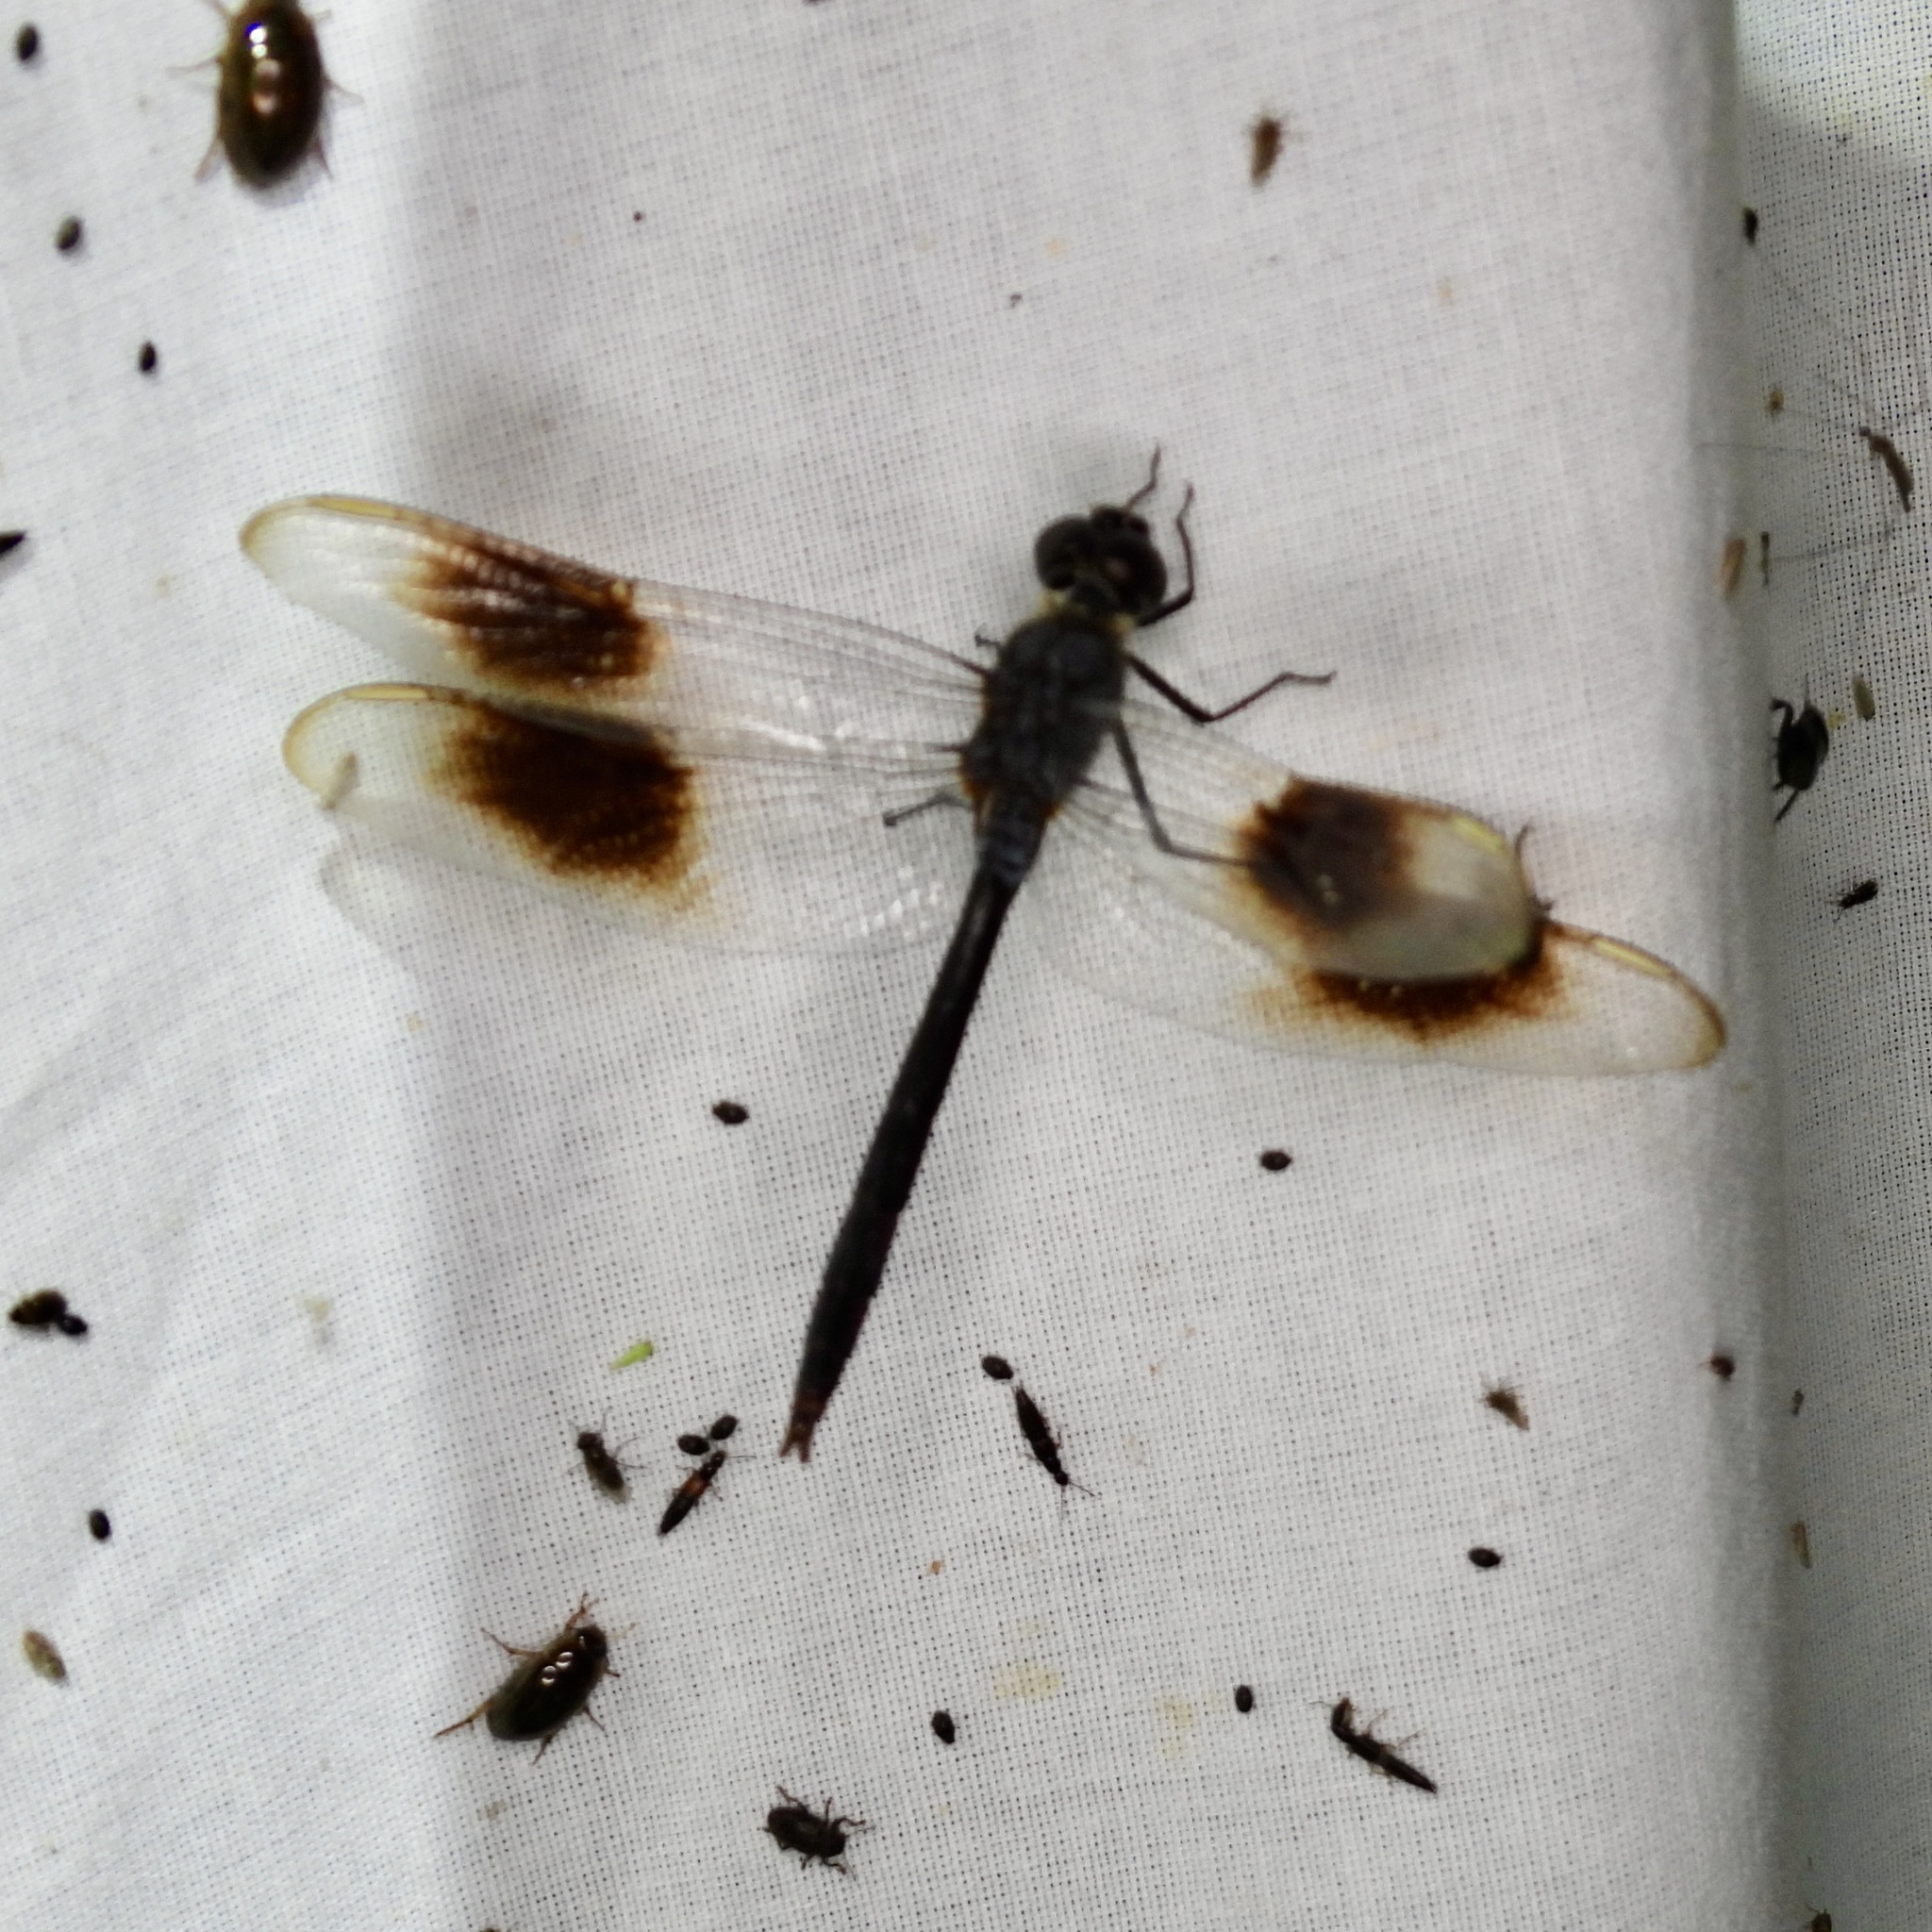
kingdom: Animalia
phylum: Arthropoda
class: Insecta
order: Odonata
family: Libellulidae
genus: Brachymesia
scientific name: Brachymesia gravida
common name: Four-spotted pennant
